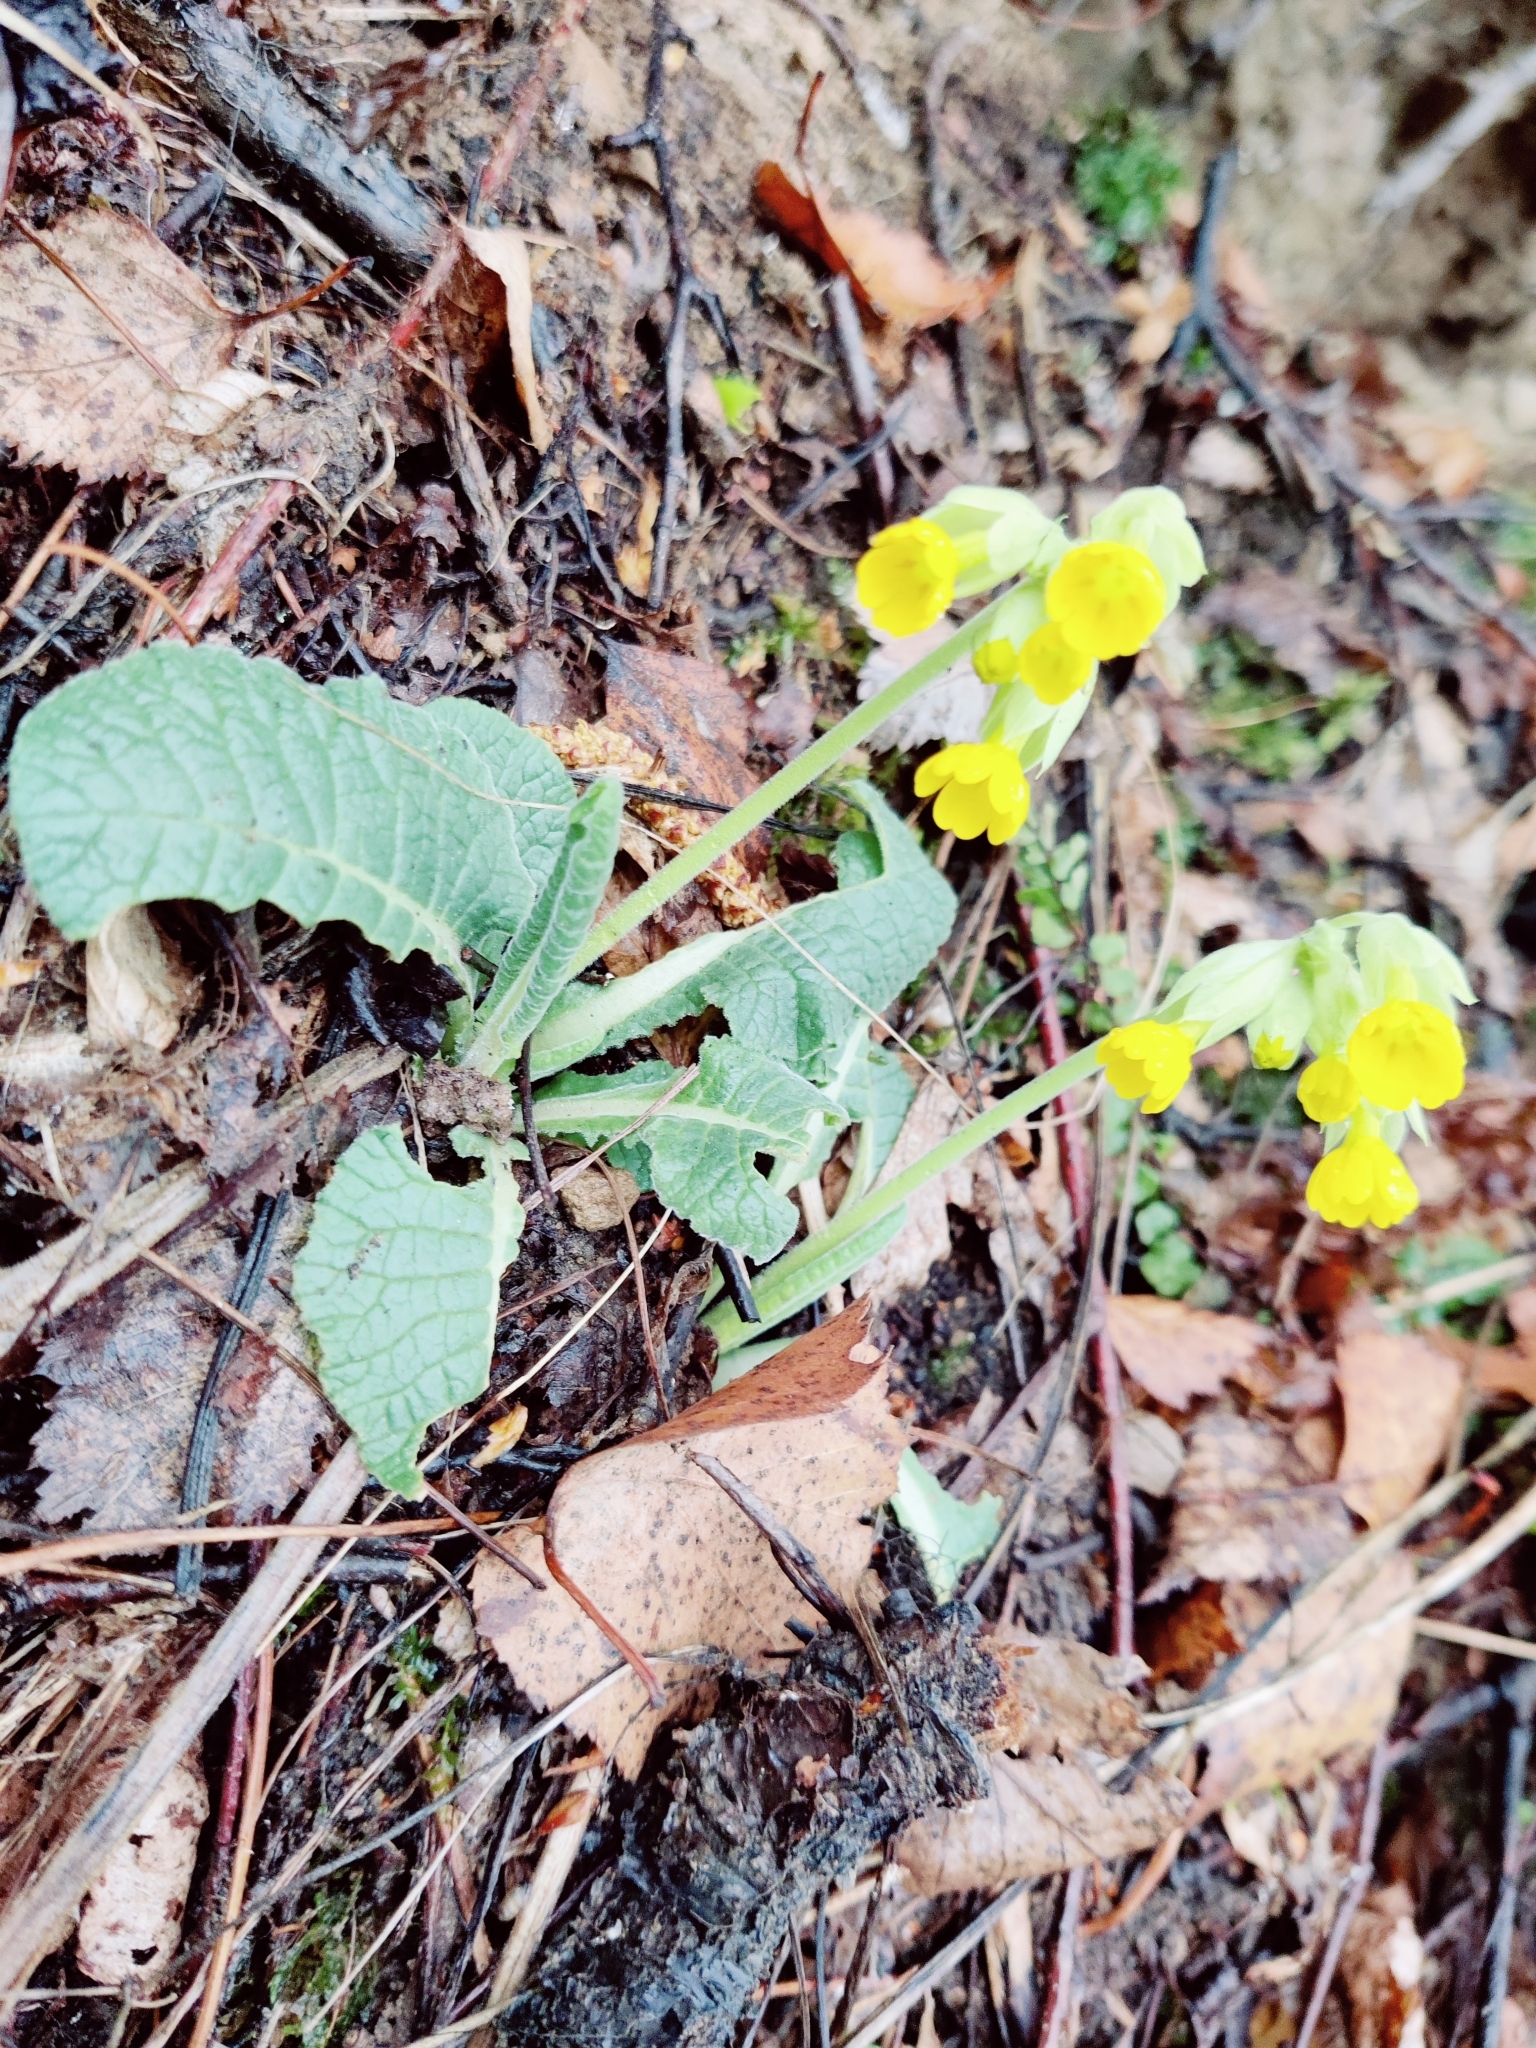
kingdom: Plantae
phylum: Tracheophyta
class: Magnoliopsida
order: Ericales
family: Primulaceae
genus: Primula
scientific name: Primula veris
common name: Cowslip
